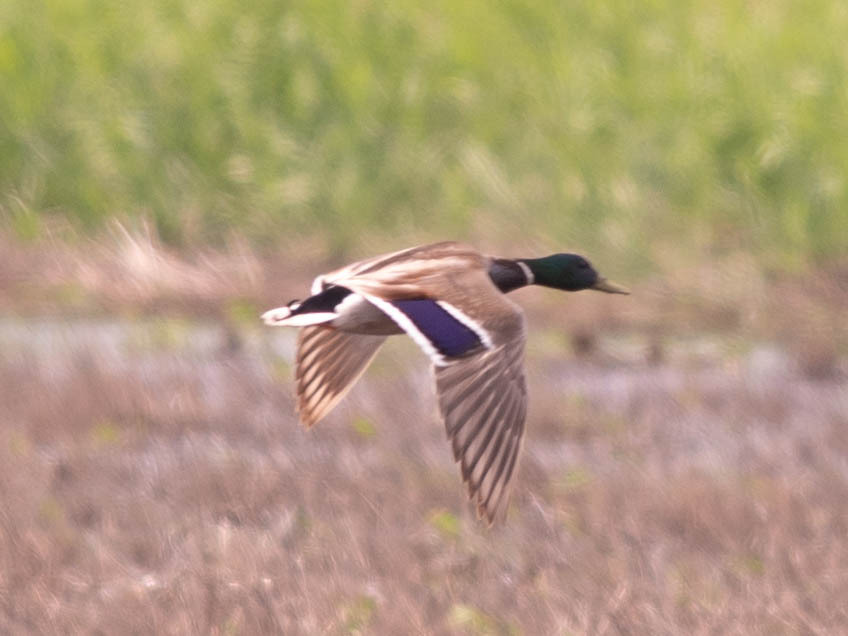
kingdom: Animalia
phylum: Chordata
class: Aves
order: Anseriformes
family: Anatidae
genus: Anas
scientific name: Anas platyrhynchos
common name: Mallard
